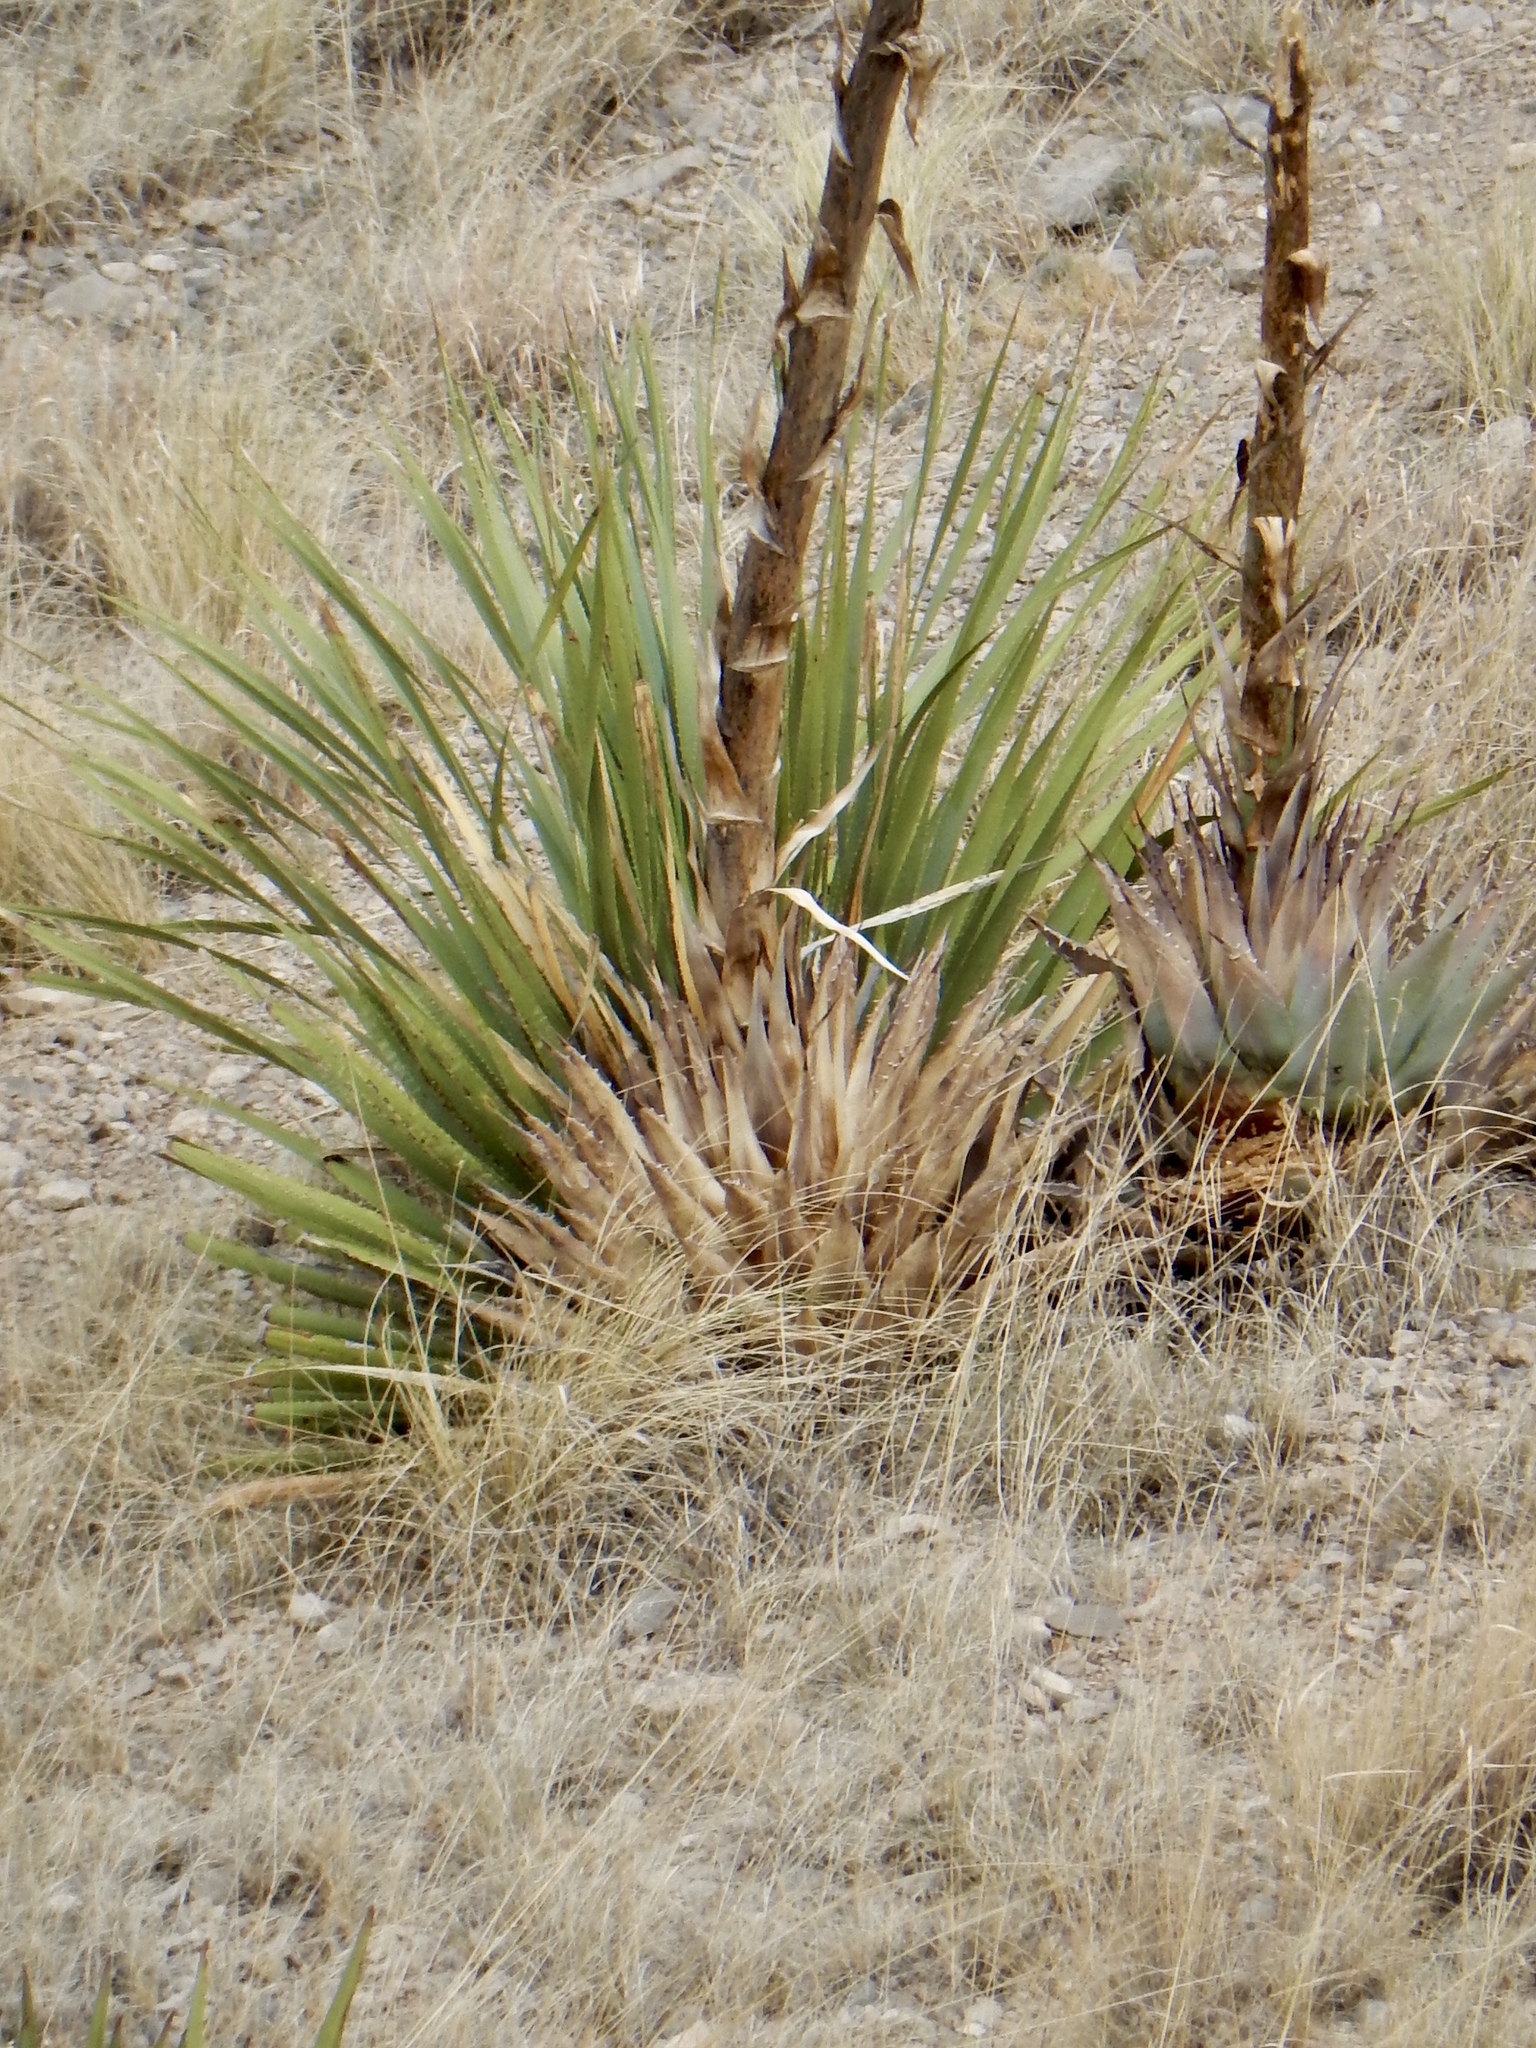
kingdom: Plantae
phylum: Tracheophyta
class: Liliopsida
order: Asparagales
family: Asparagaceae
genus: Agave
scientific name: Agave parryi
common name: Parry's agave
